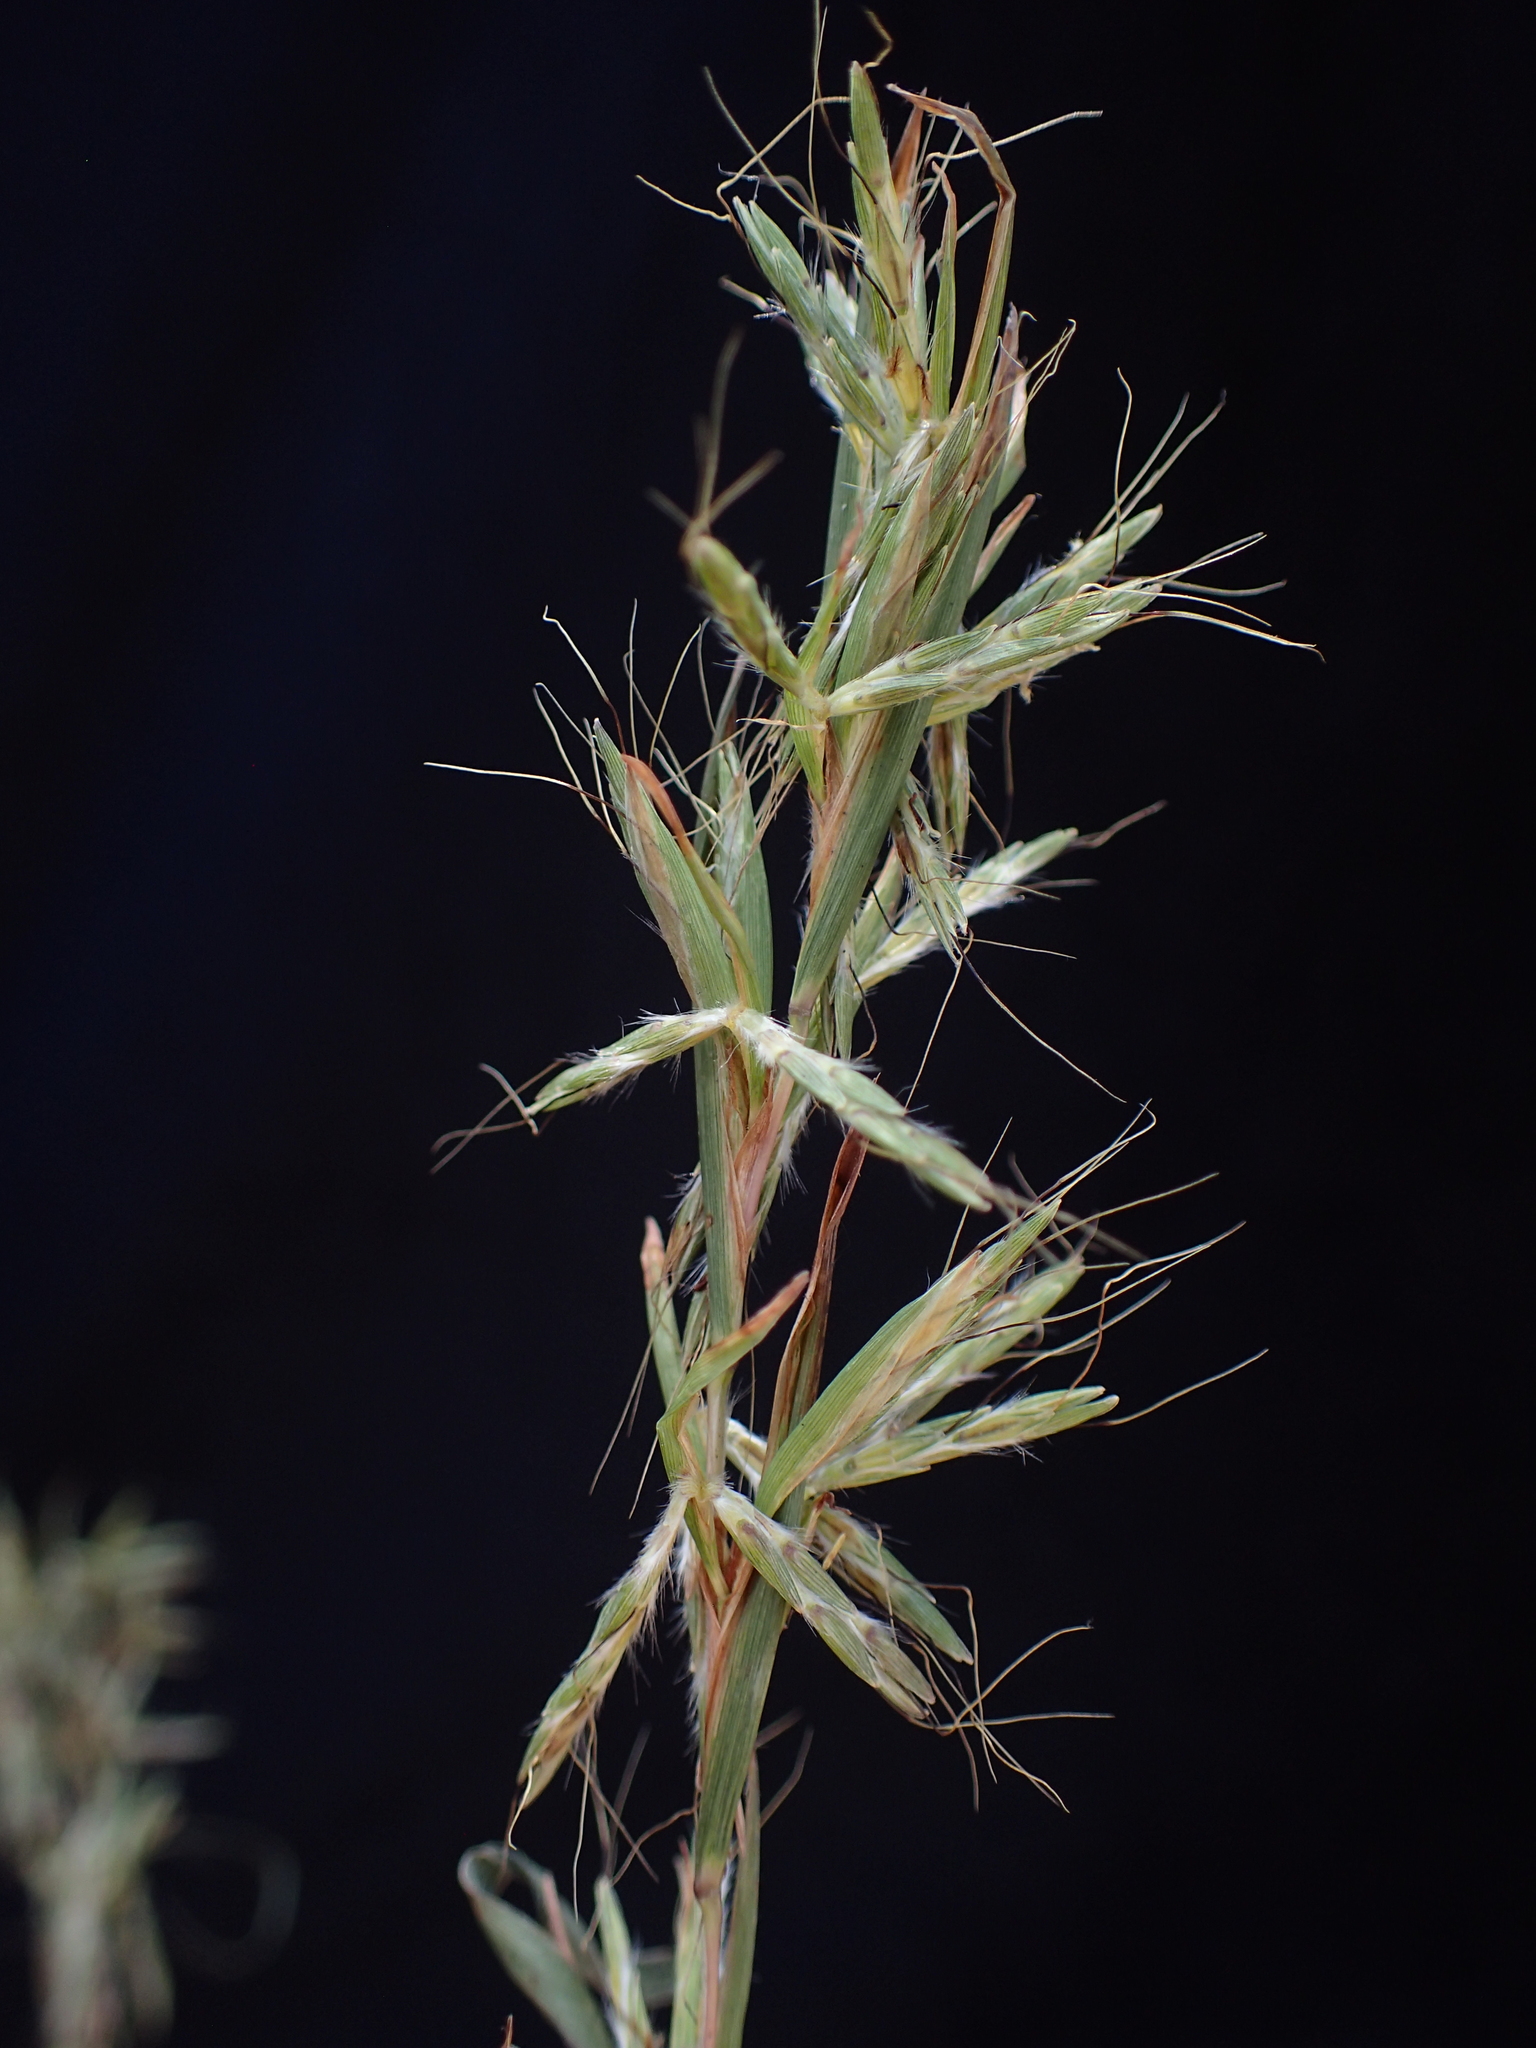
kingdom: Plantae
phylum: Tracheophyta
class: Liliopsida
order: Poales
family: Poaceae
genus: Cymbopogon
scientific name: Cymbopogon caesius
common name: Kachi grass
